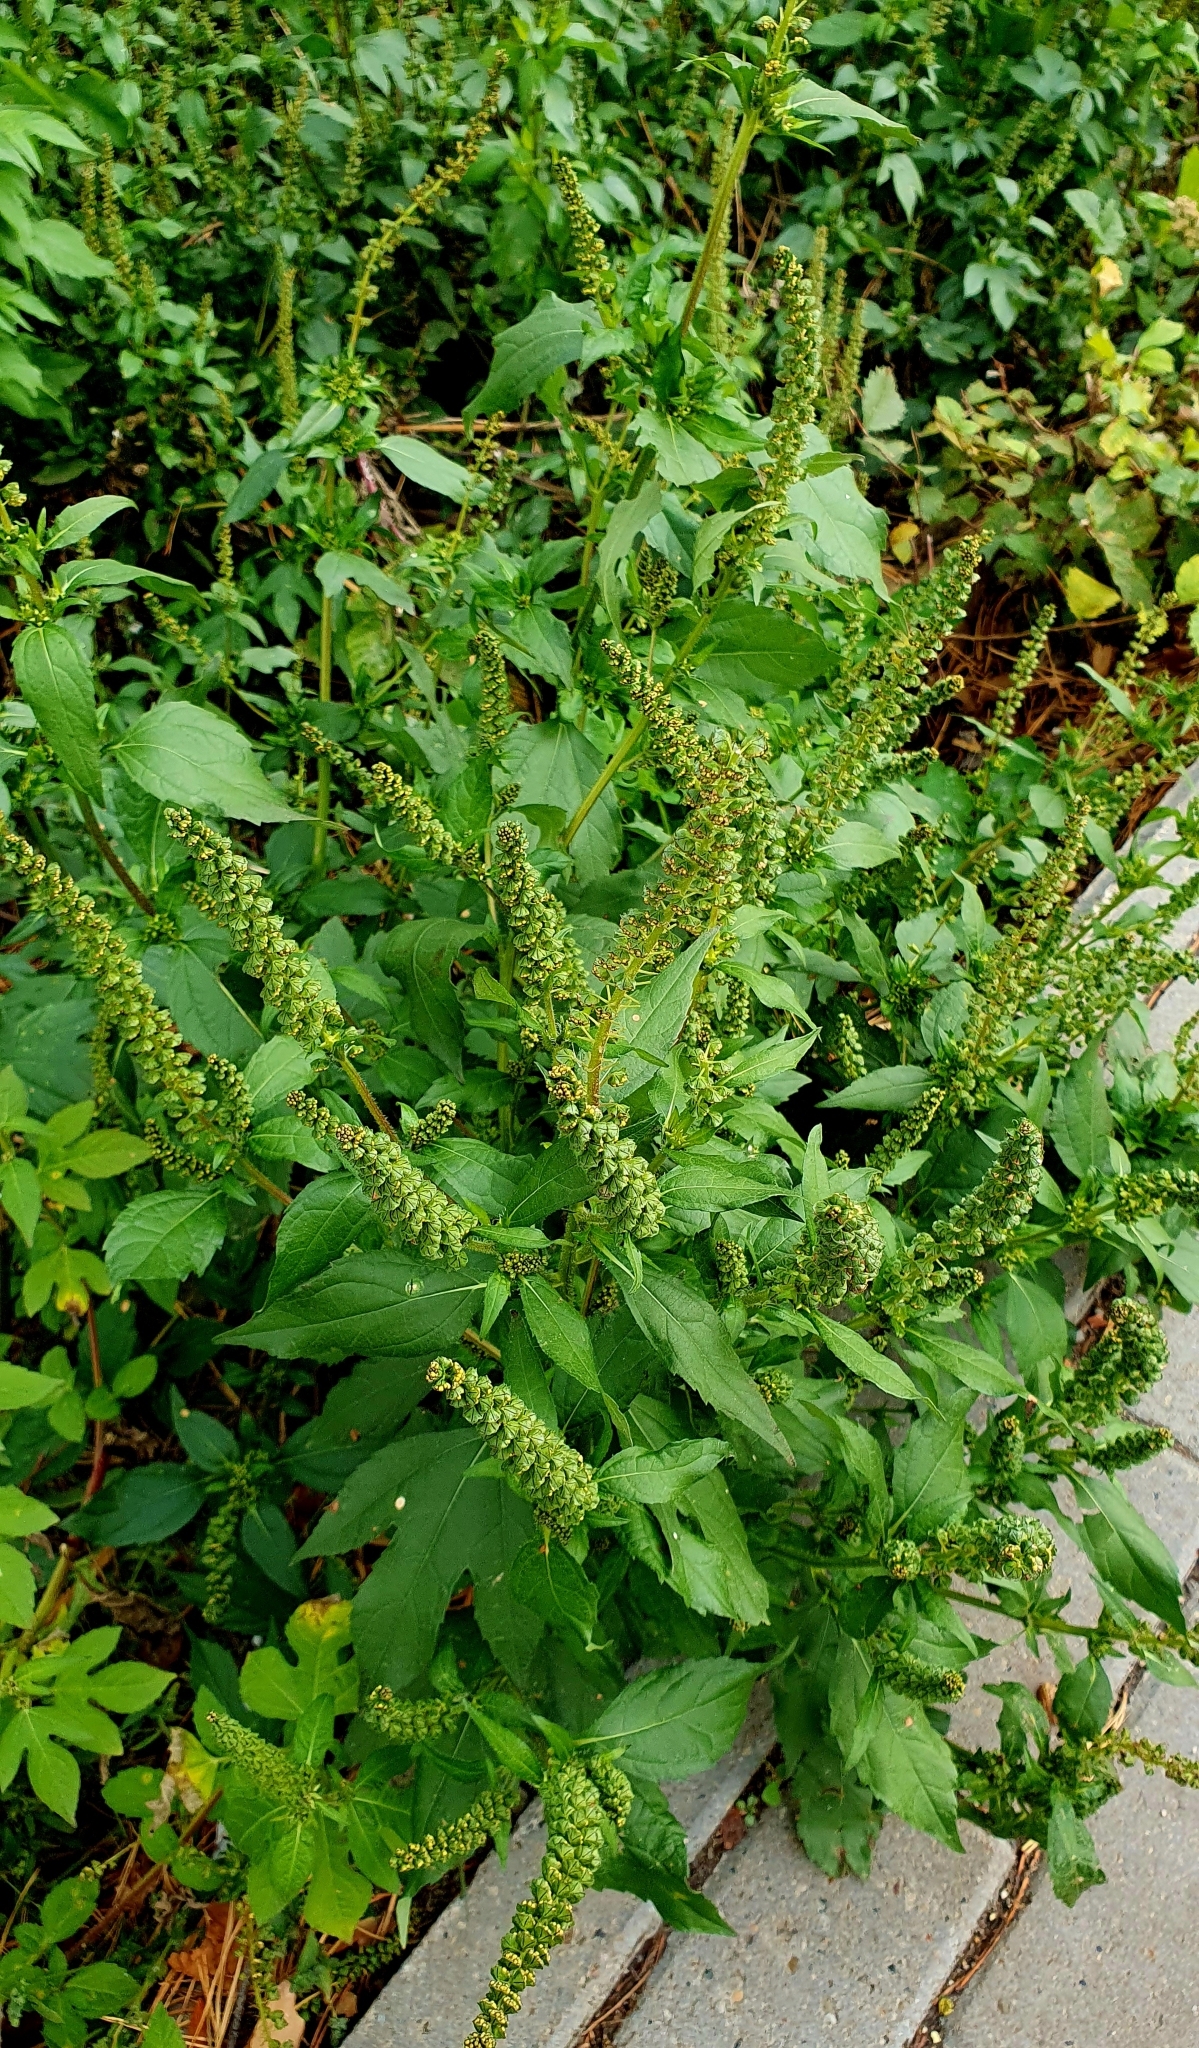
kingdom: Plantae
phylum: Tracheophyta
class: Magnoliopsida
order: Asterales
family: Asteraceae
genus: Ambrosia
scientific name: Ambrosia trifida
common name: Giant ragweed
